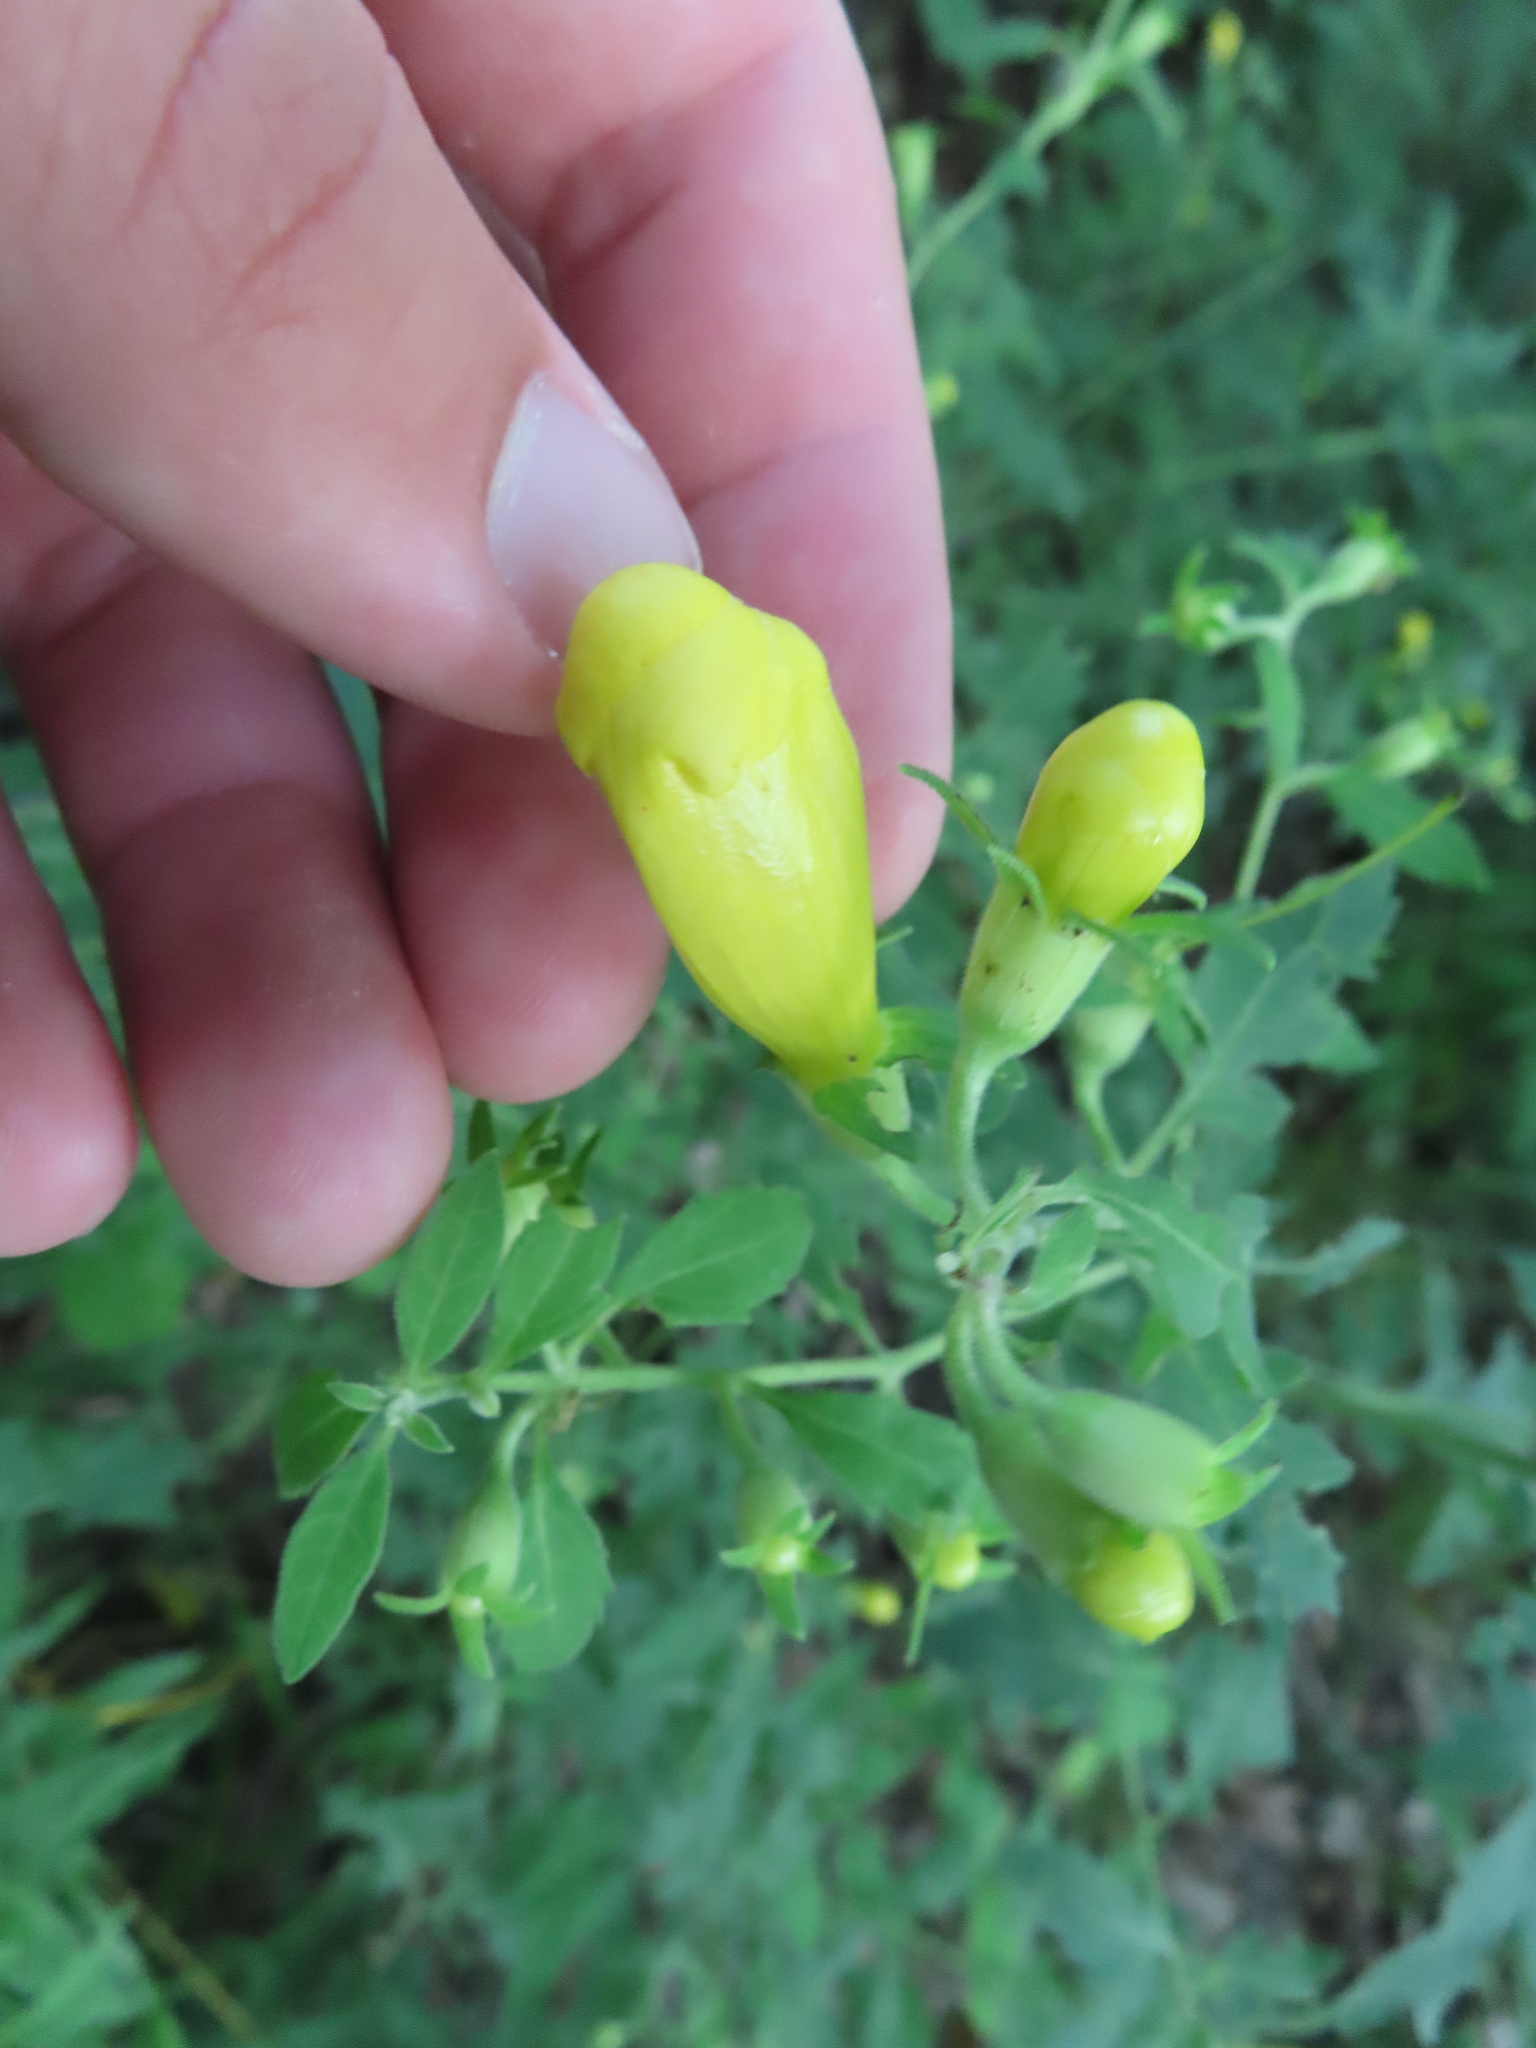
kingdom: Plantae
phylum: Tracheophyta
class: Magnoliopsida
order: Lamiales
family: Orobanchaceae
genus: Aureolaria
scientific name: Aureolaria grandiflora
